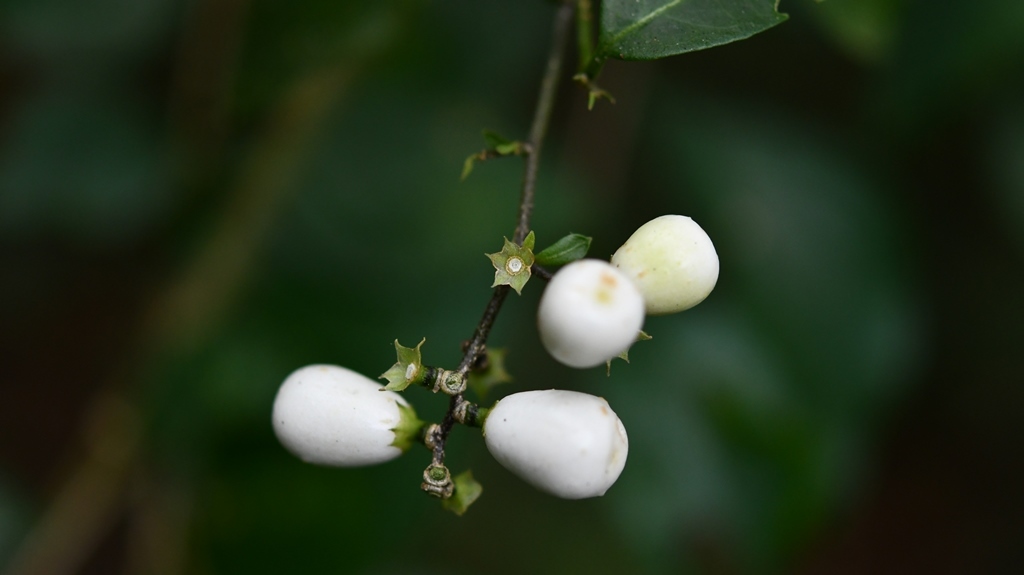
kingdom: Plantae
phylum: Tracheophyta
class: Magnoliopsida
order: Gentianales
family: Rubiaceae
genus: Chiococca
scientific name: Chiococca alba
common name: Snowberry
